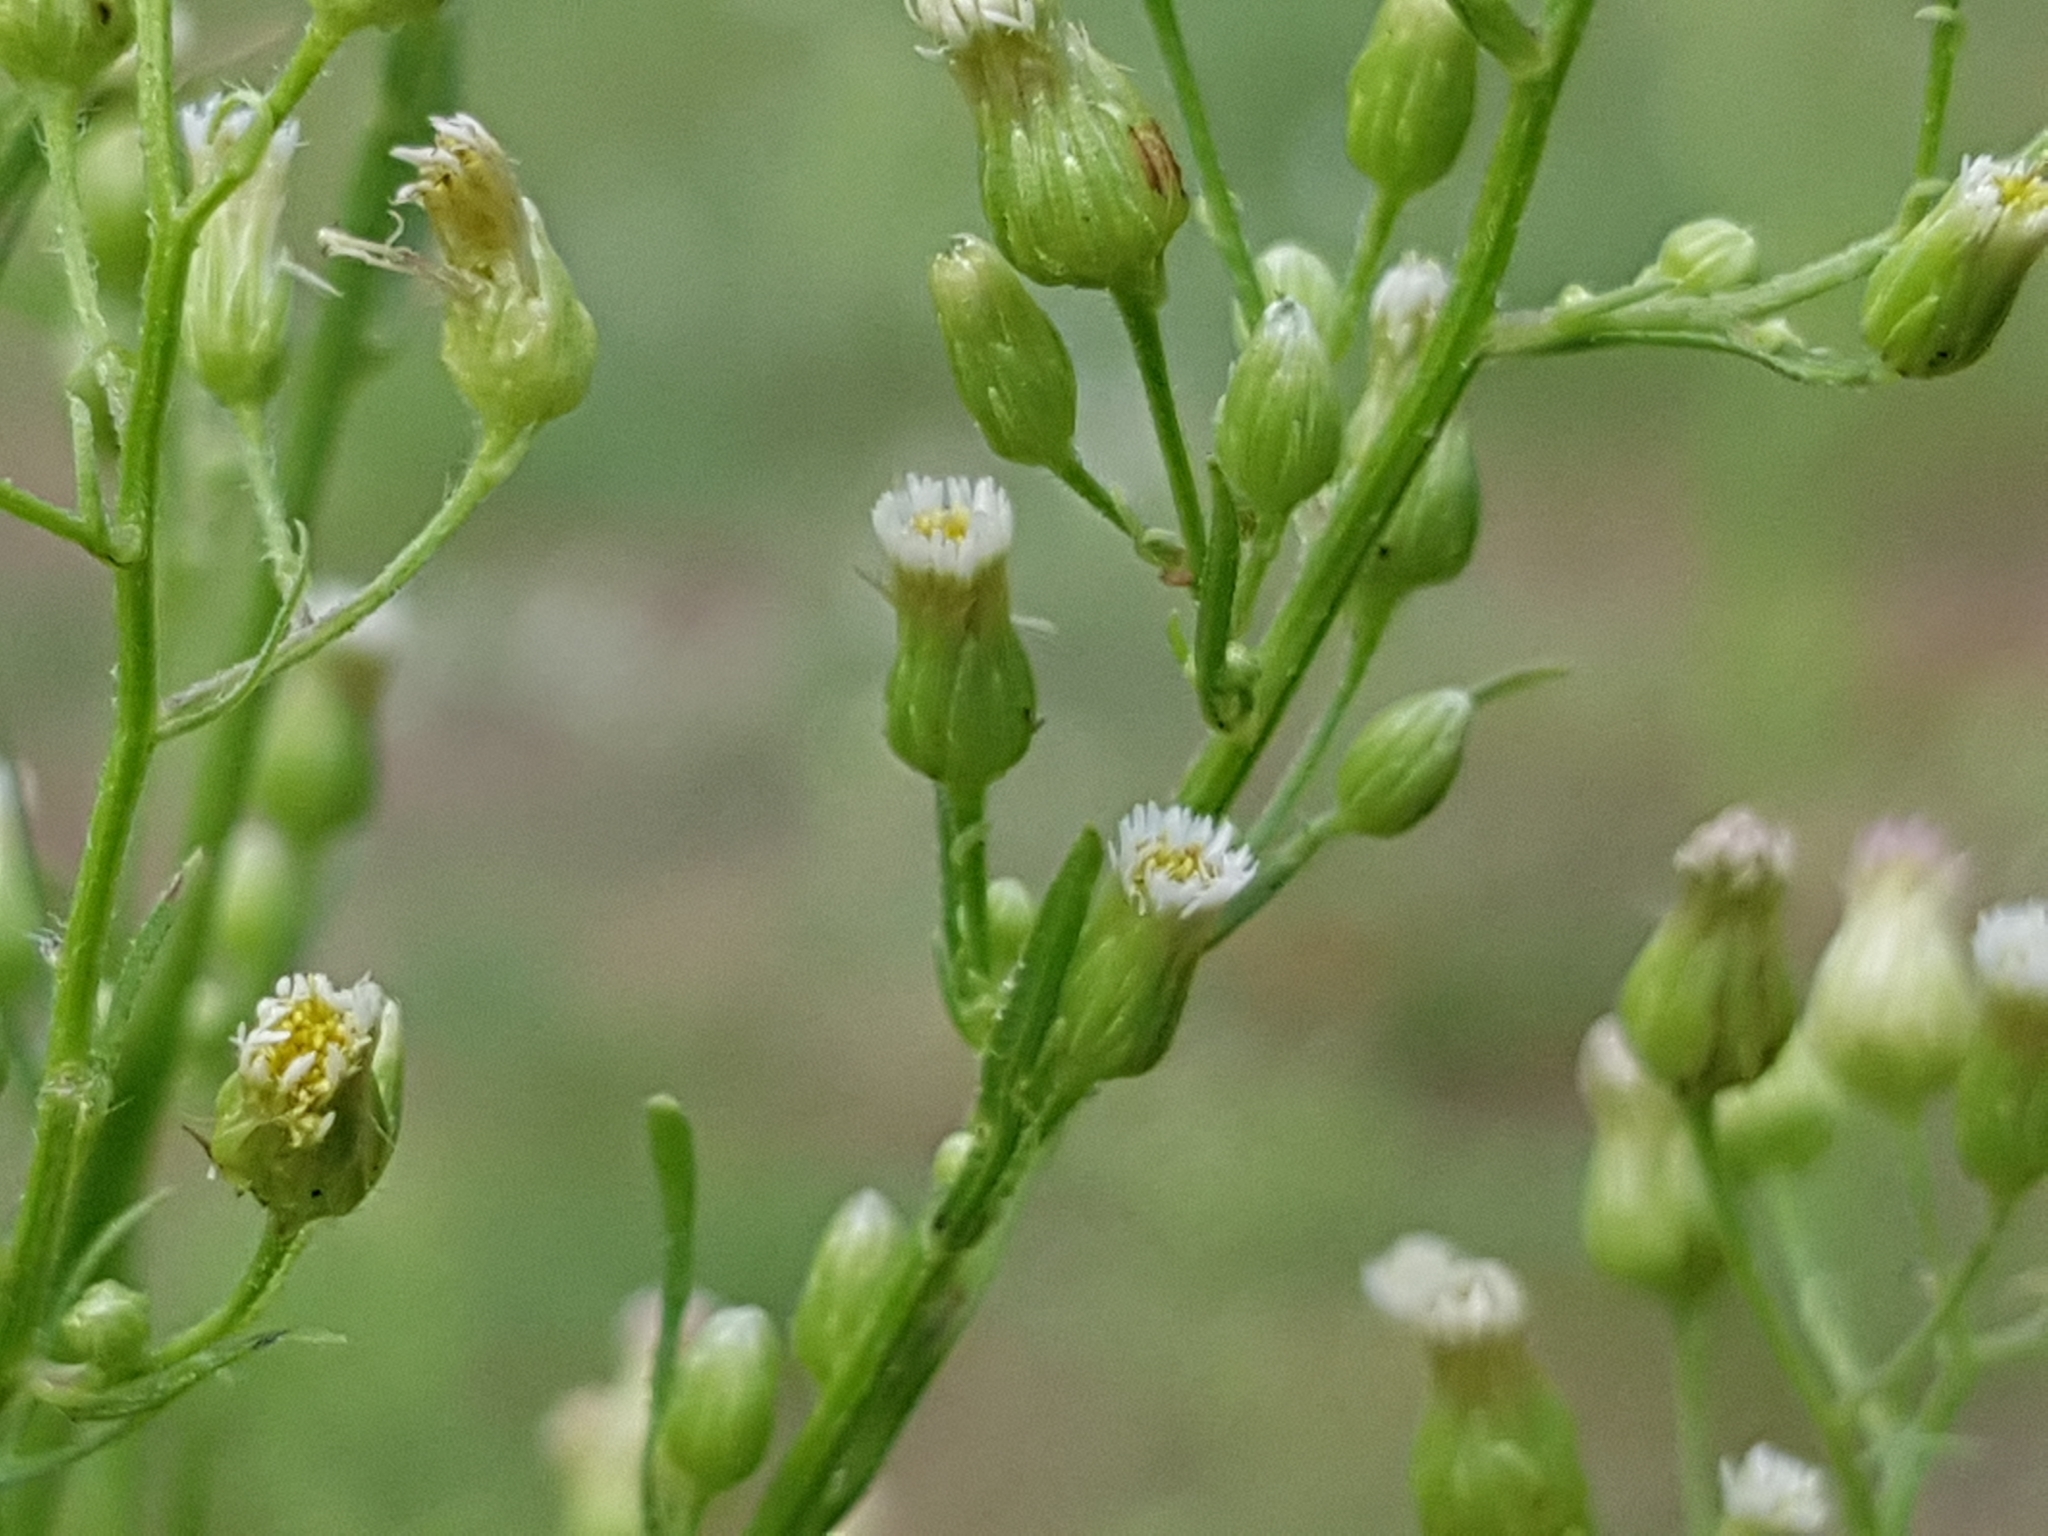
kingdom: Plantae
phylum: Tracheophyta
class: Magnoliopsida
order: Asterales
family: Asteraceae
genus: Erigeron
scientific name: Erigeron canadensis
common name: Canadian fleabane
